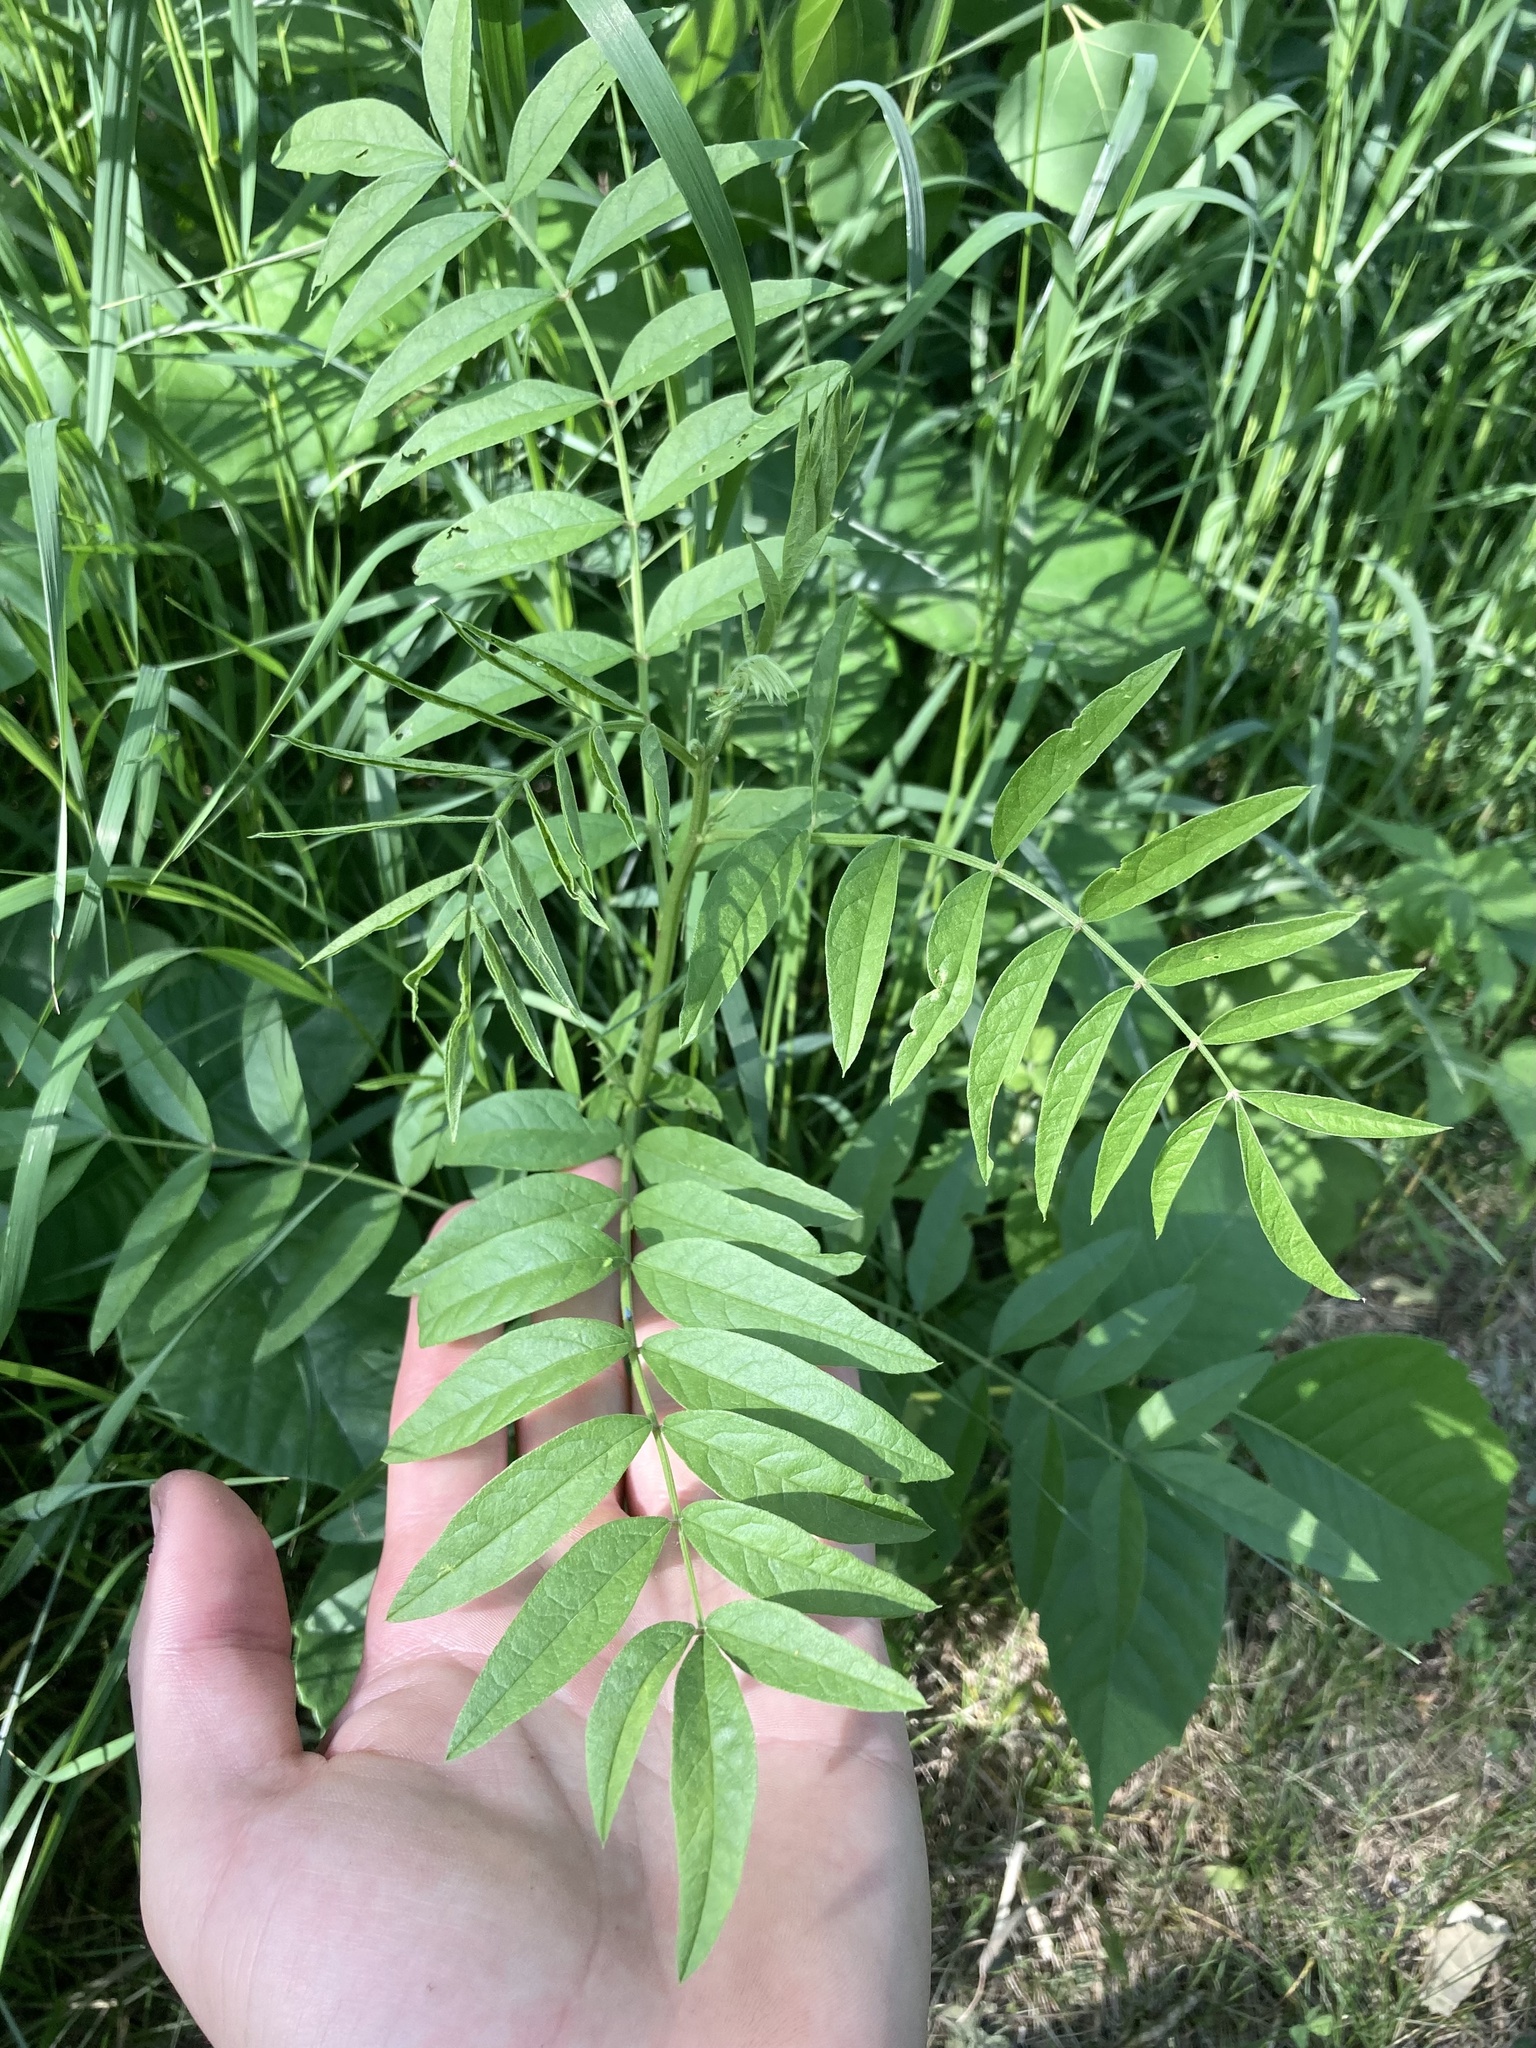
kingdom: Plantae
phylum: Tracheophyta
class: Magnoliopsida
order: Fabales
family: Fabaceae
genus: Glycyrrhiza
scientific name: Glycyrrhiza lepidota
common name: American liquorice
